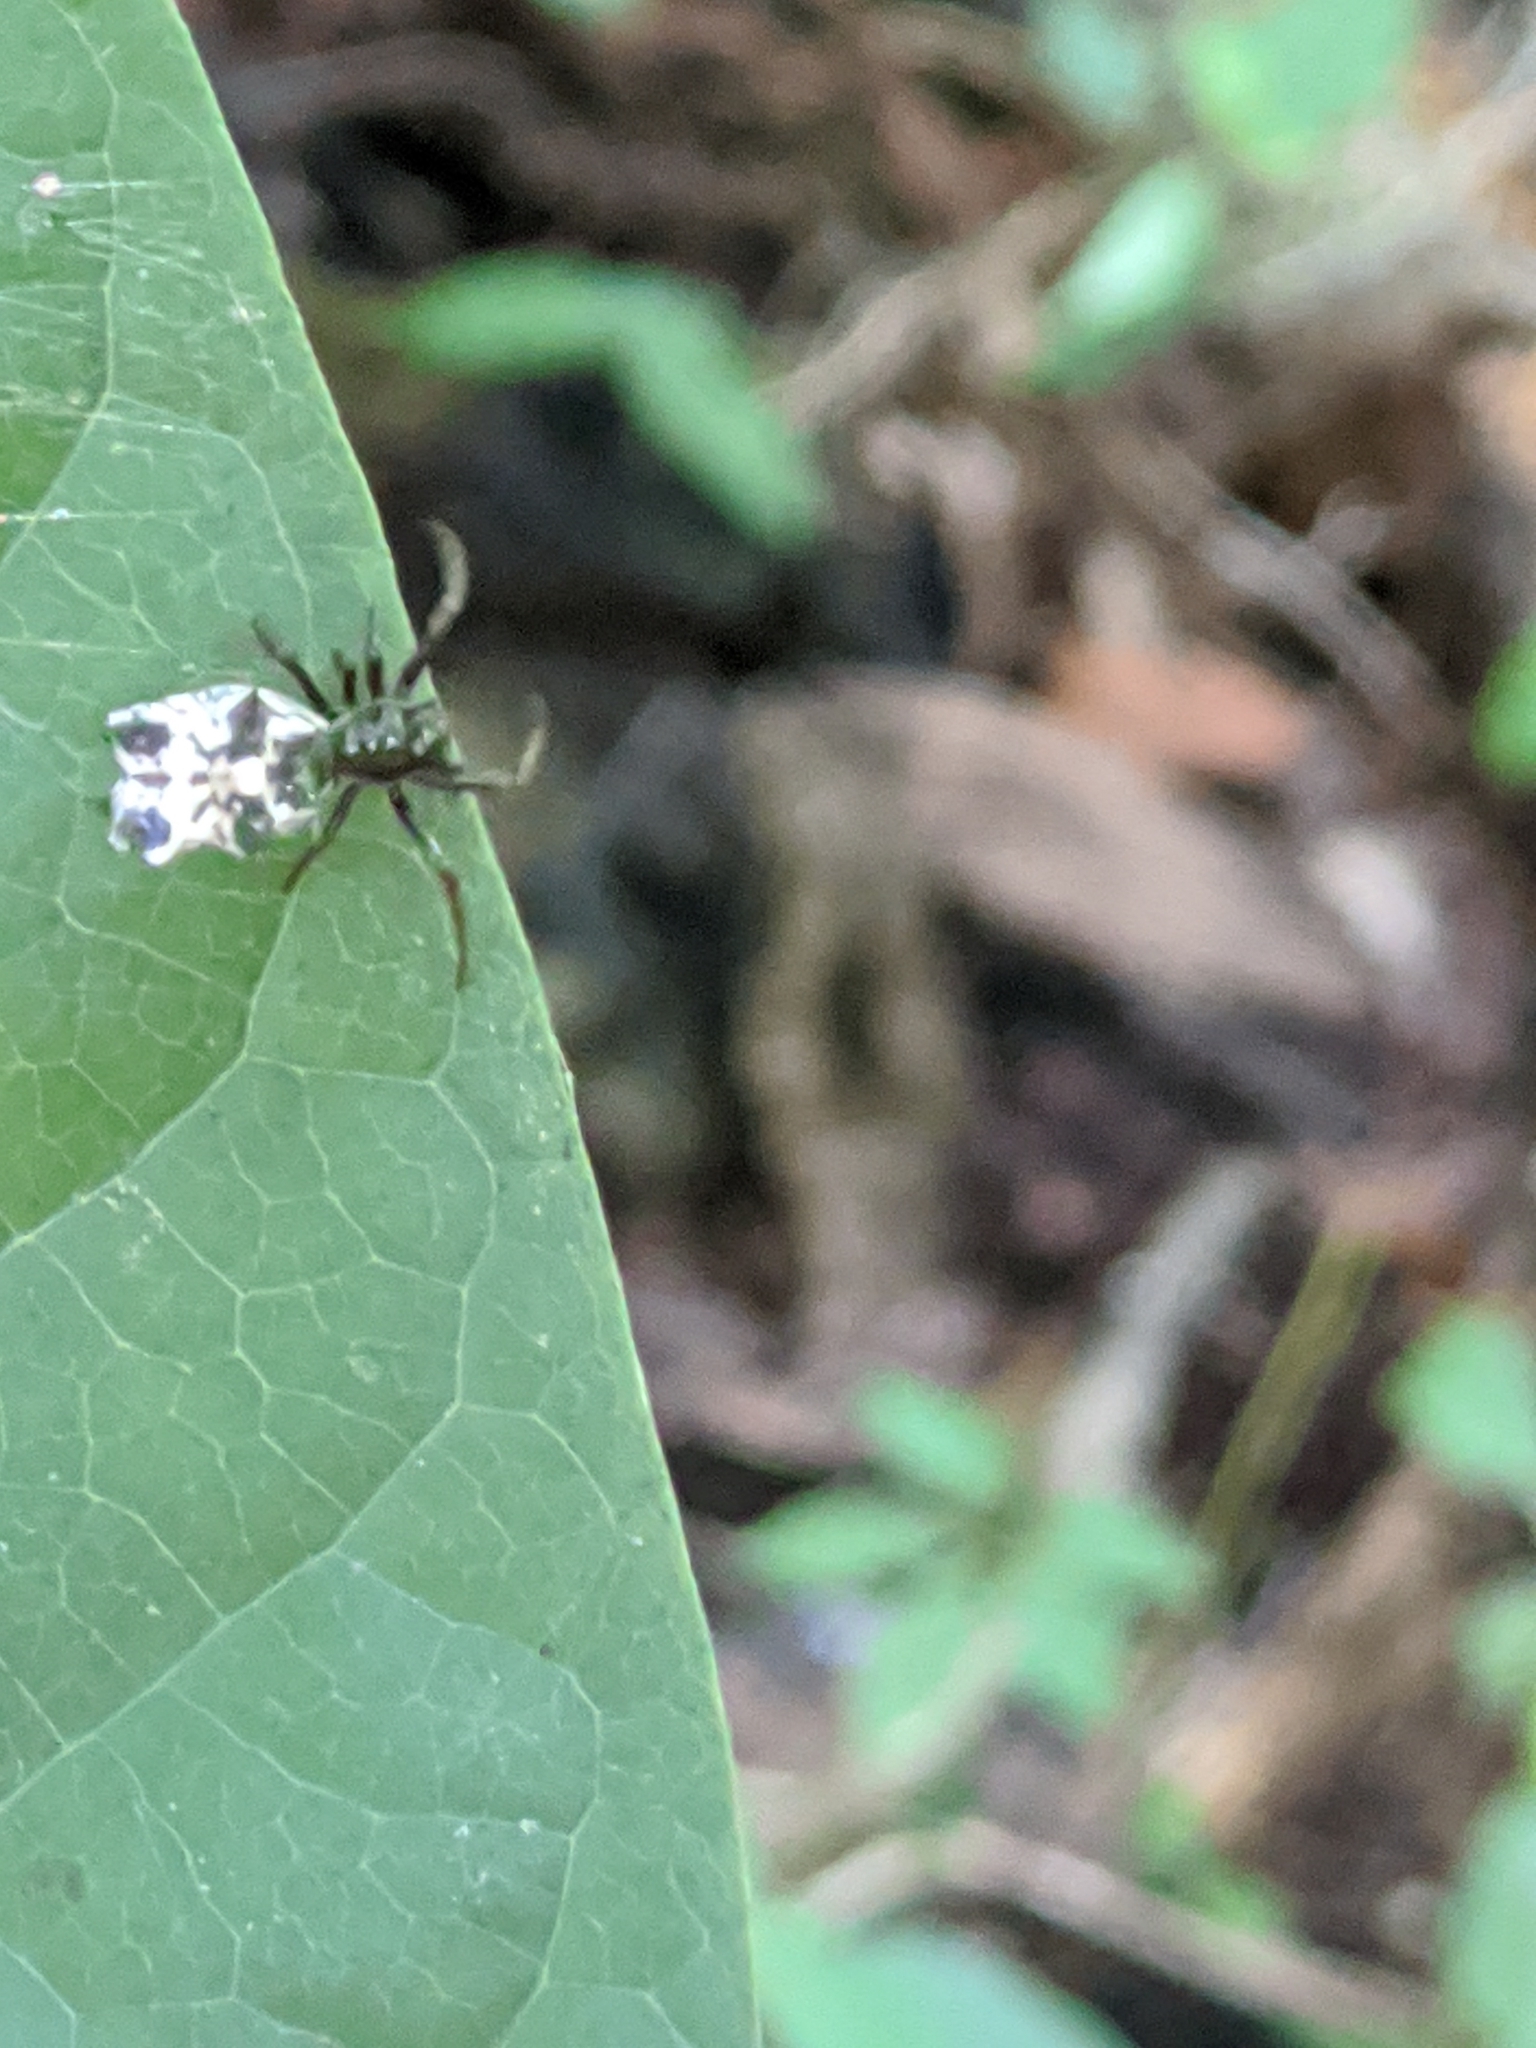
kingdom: Animalia
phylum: Arthropoda
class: Arachnida
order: Araneae
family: Araneidae
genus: Micrathena
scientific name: Micrathena gracilis
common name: Orb weavers
